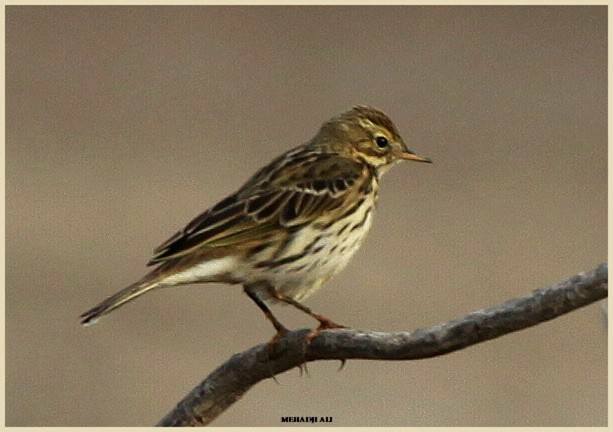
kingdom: Animalia
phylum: Chordata
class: Aves
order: Passeriformes
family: Motacillidae
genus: Anthus
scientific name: Anthus pratensis
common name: Meadow pipit
